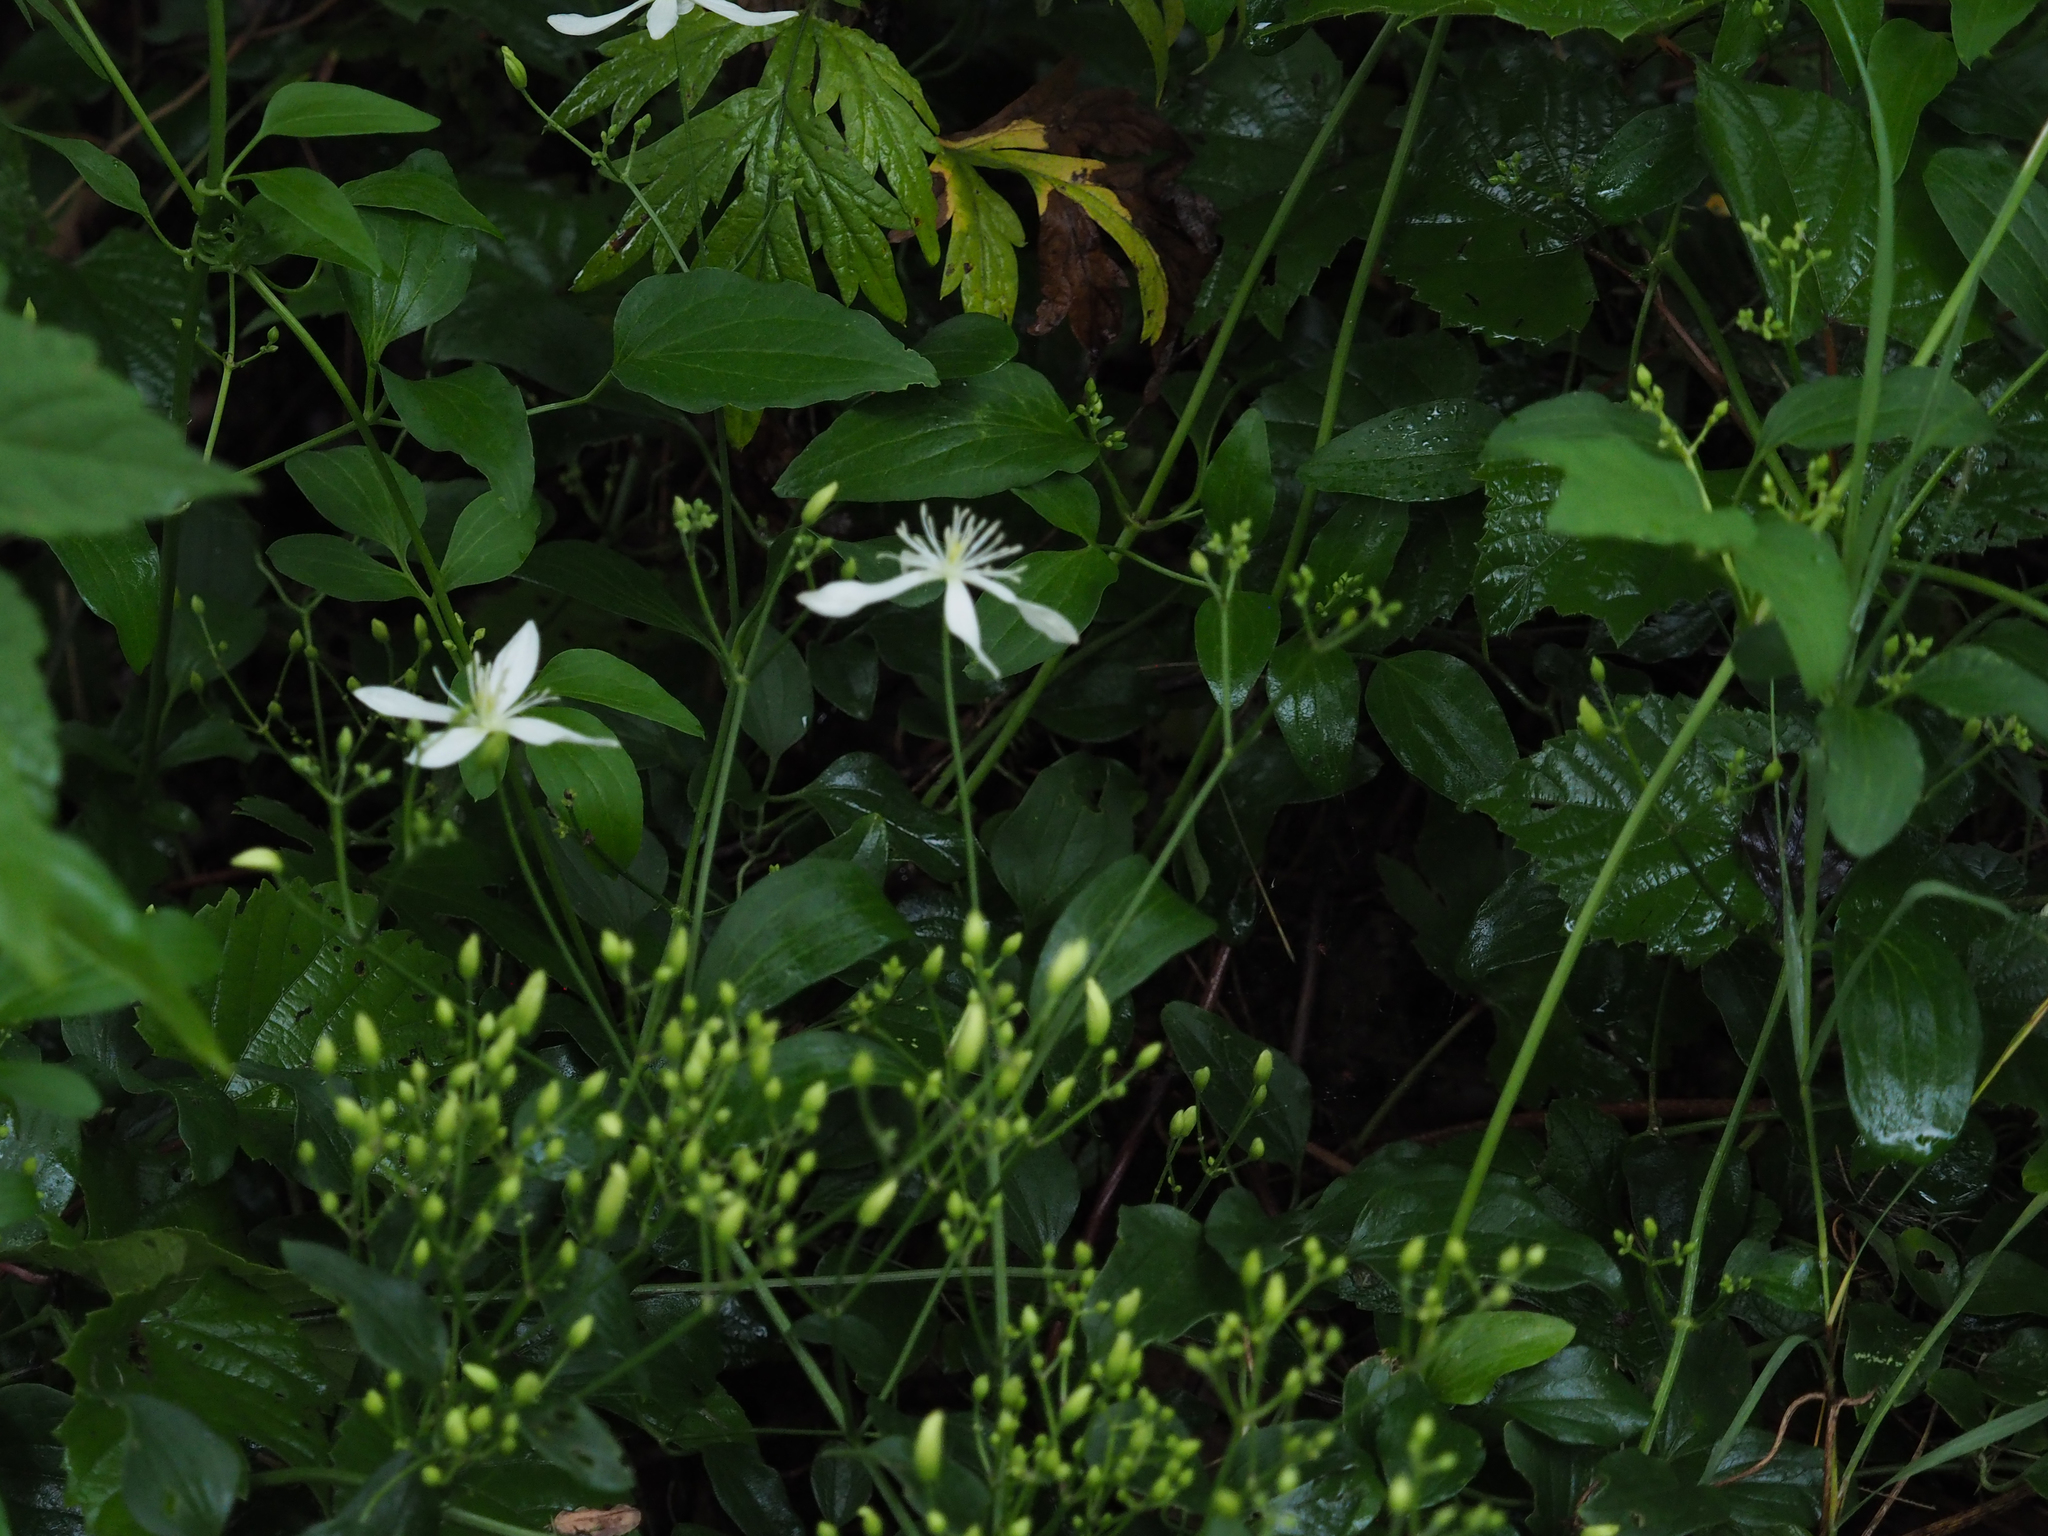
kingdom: Plantae
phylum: Tracheophyta
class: Magnoliopsida
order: Ranunculales
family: Ranunculaceae
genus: Clematis
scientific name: Clematis terniflora
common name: Sweet autumn clematis
